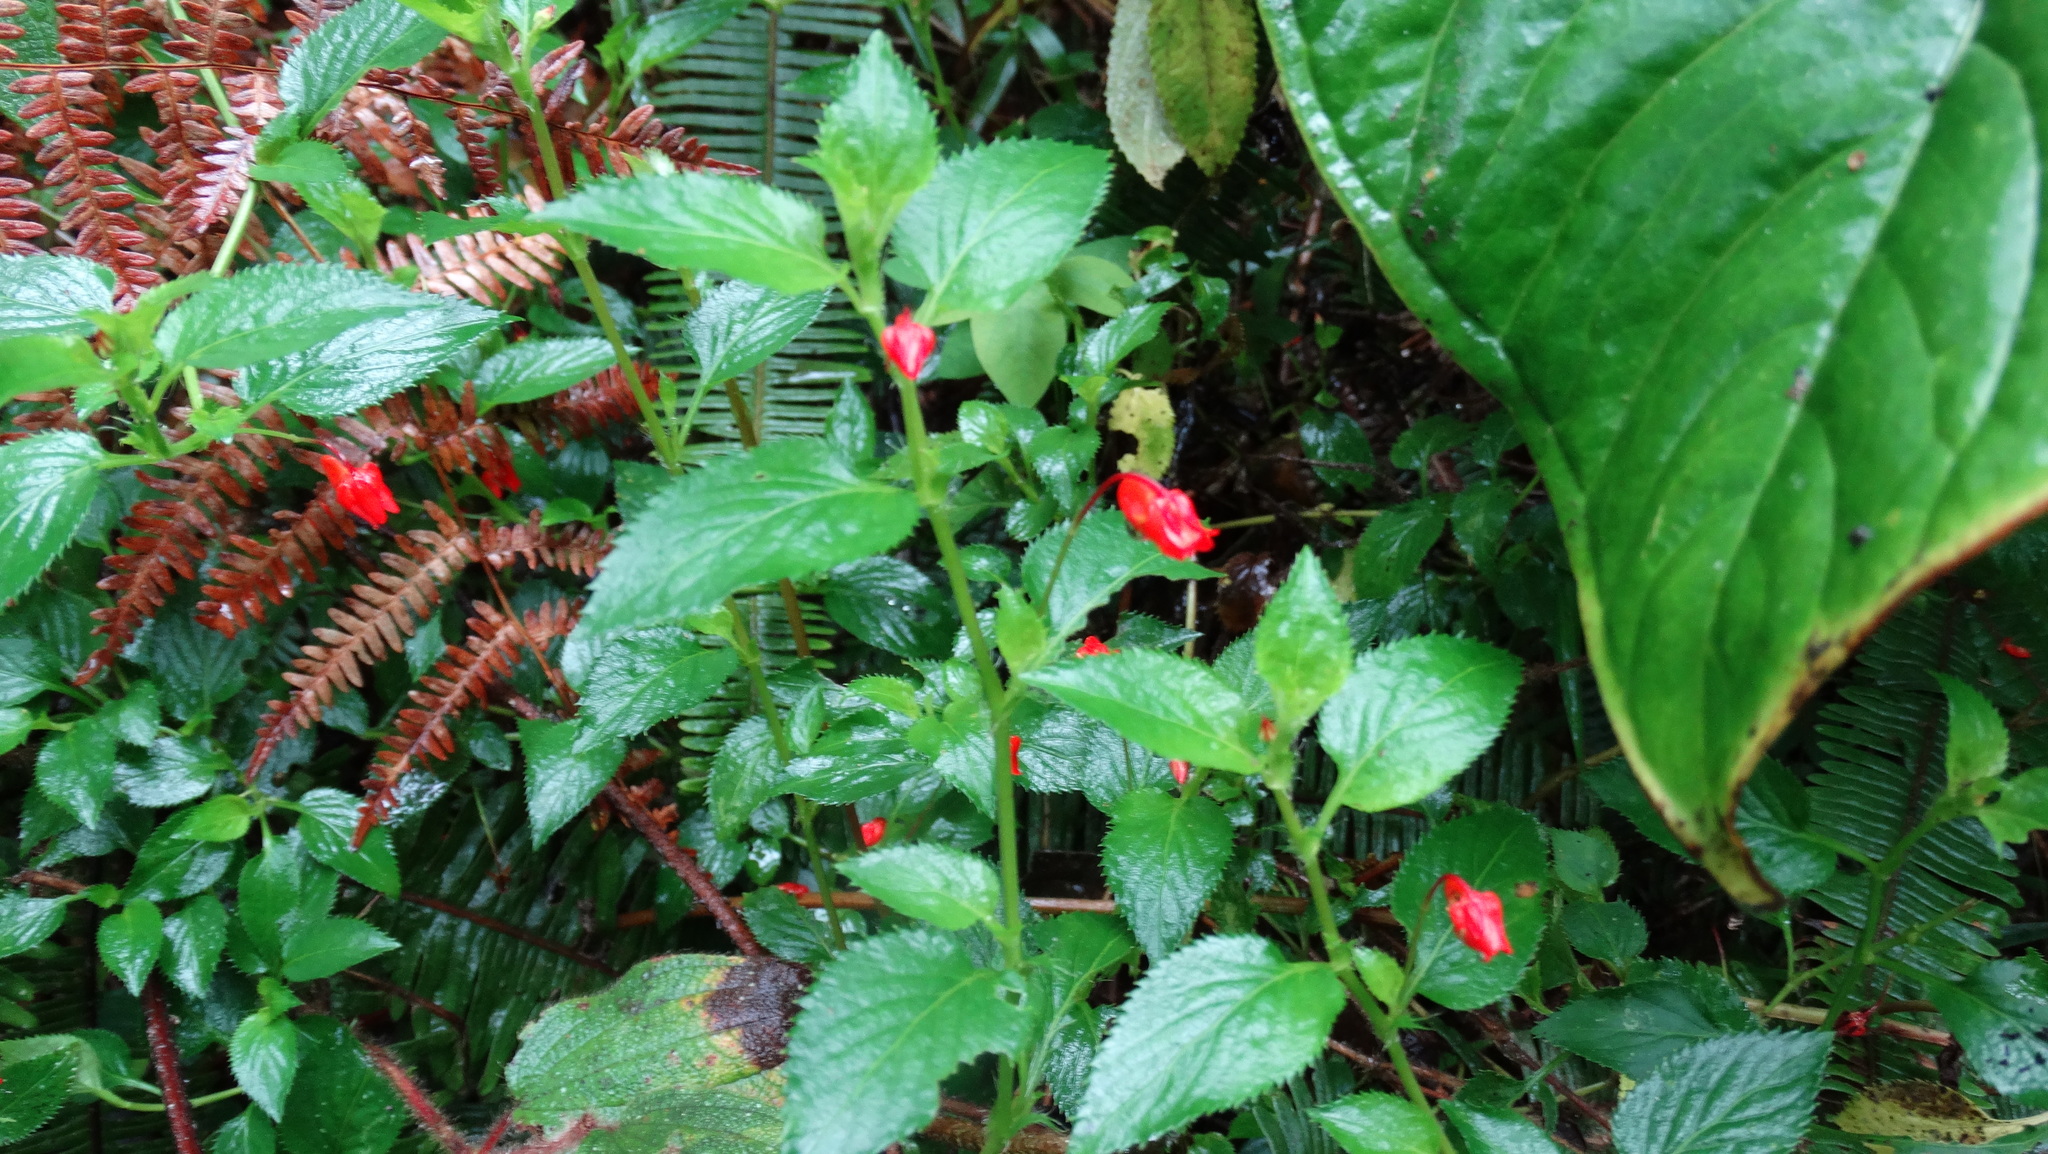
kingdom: Plantae
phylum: Tracheophyta
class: Magnoliopsida
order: Malpighiales
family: Violaceae
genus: Viola
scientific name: Viola arguta
